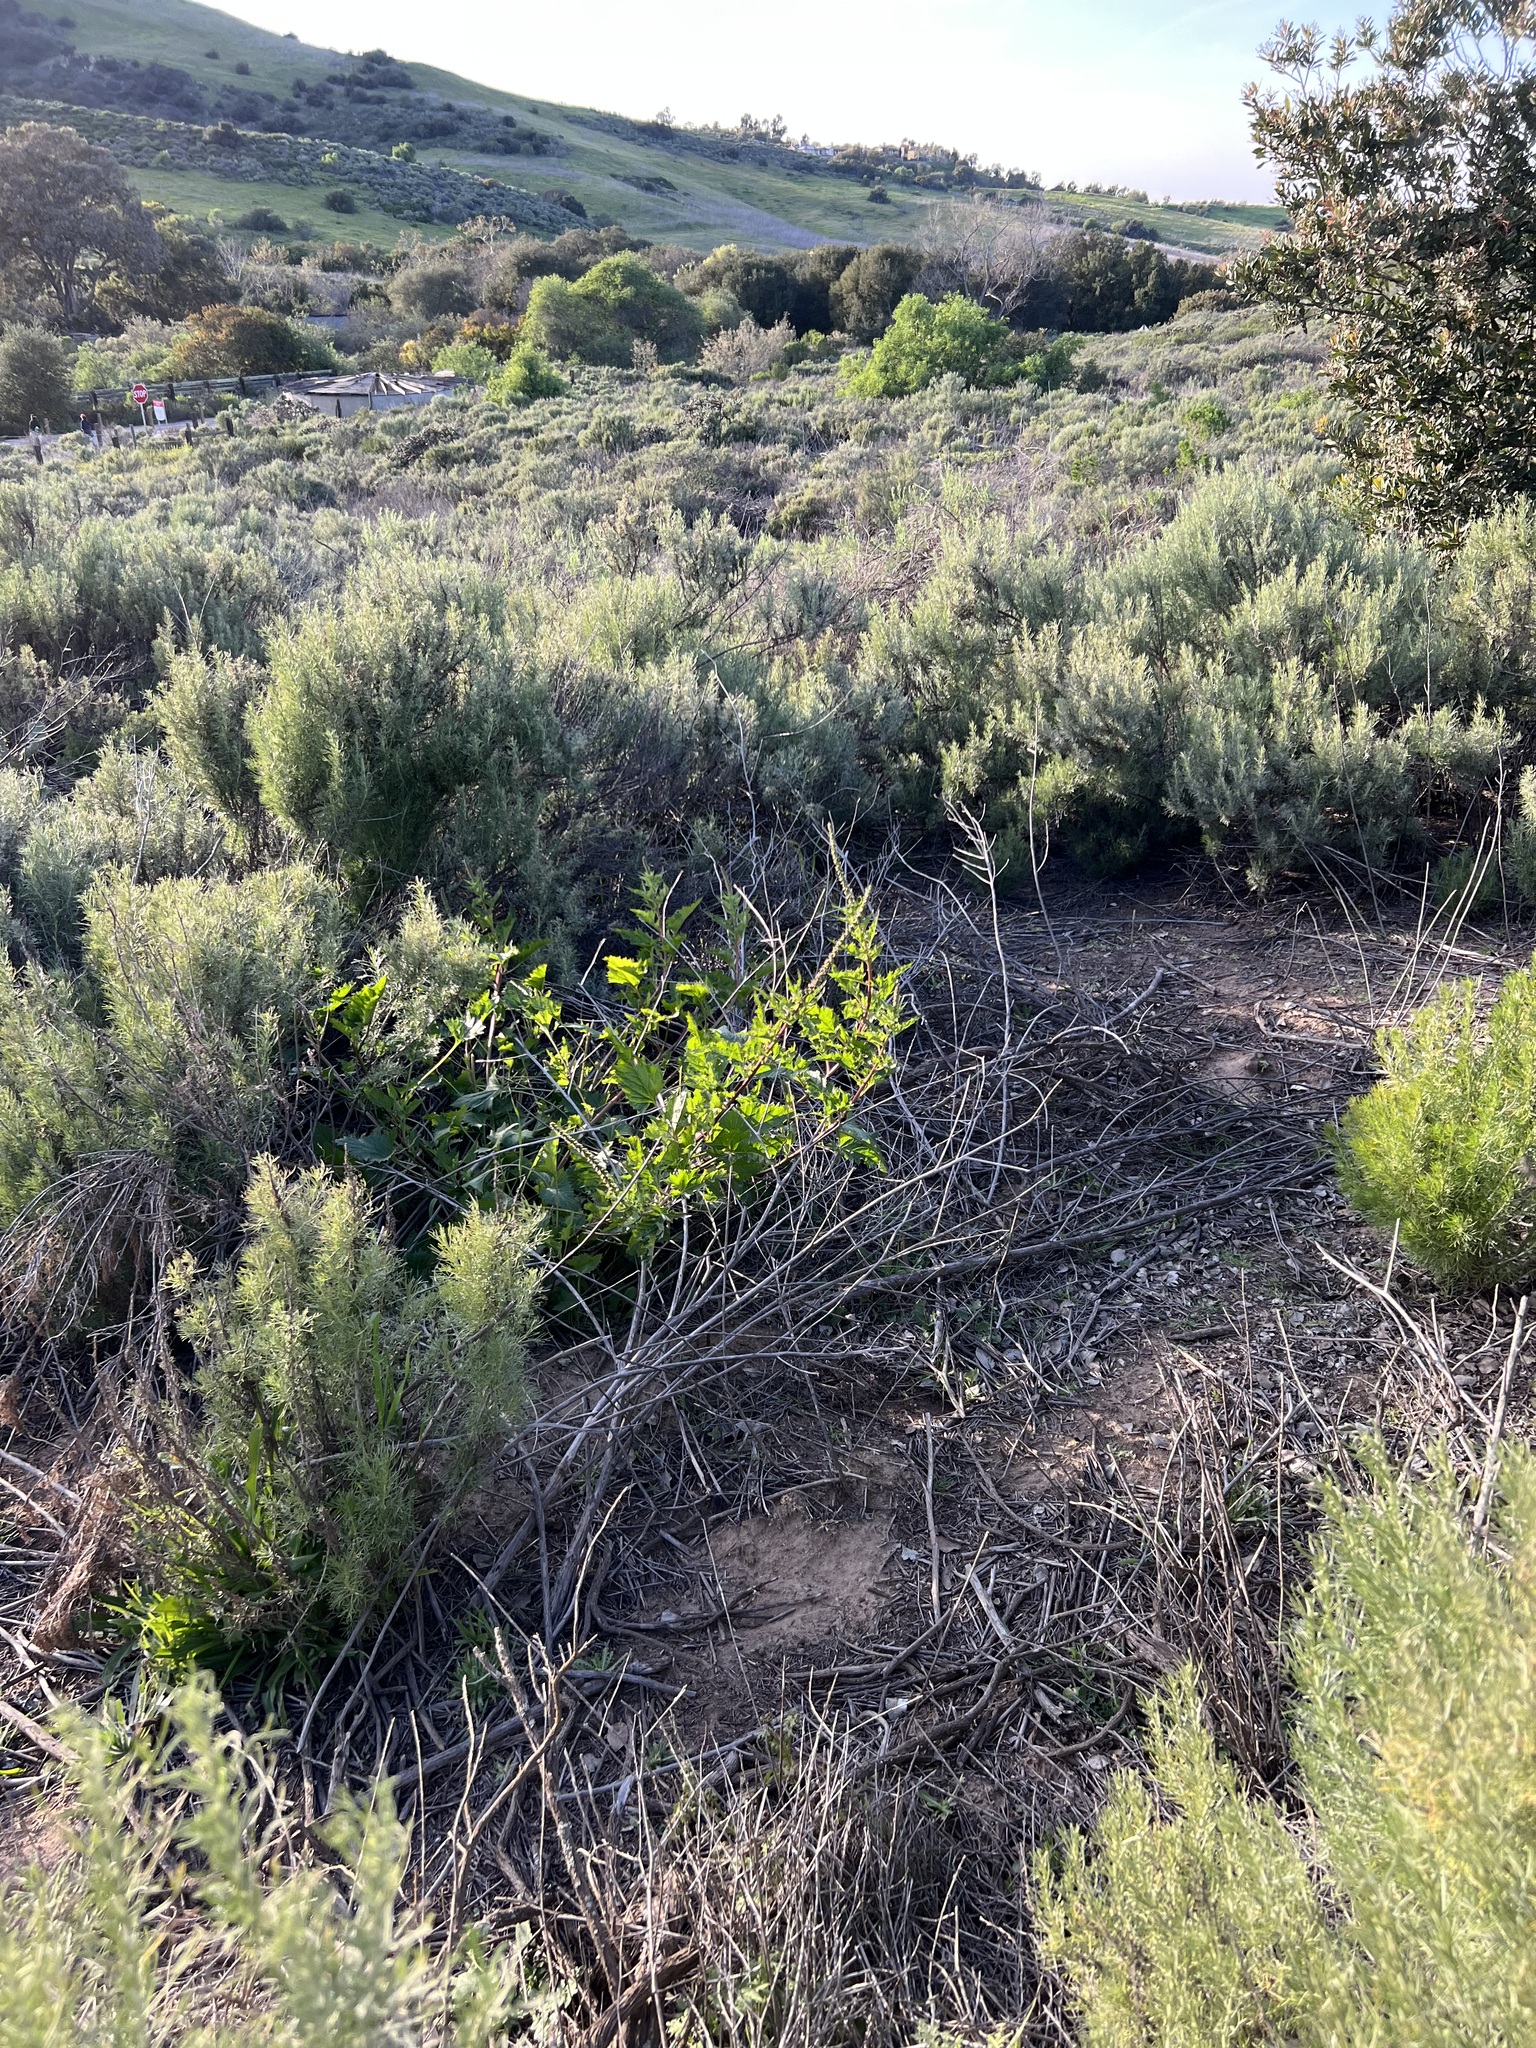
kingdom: Plantae
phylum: Tracheophyta
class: Magnoliopsida
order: Caryophyllales
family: Amaranthaceae
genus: Blitum
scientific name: Blitum californicum
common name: California goosefoot
